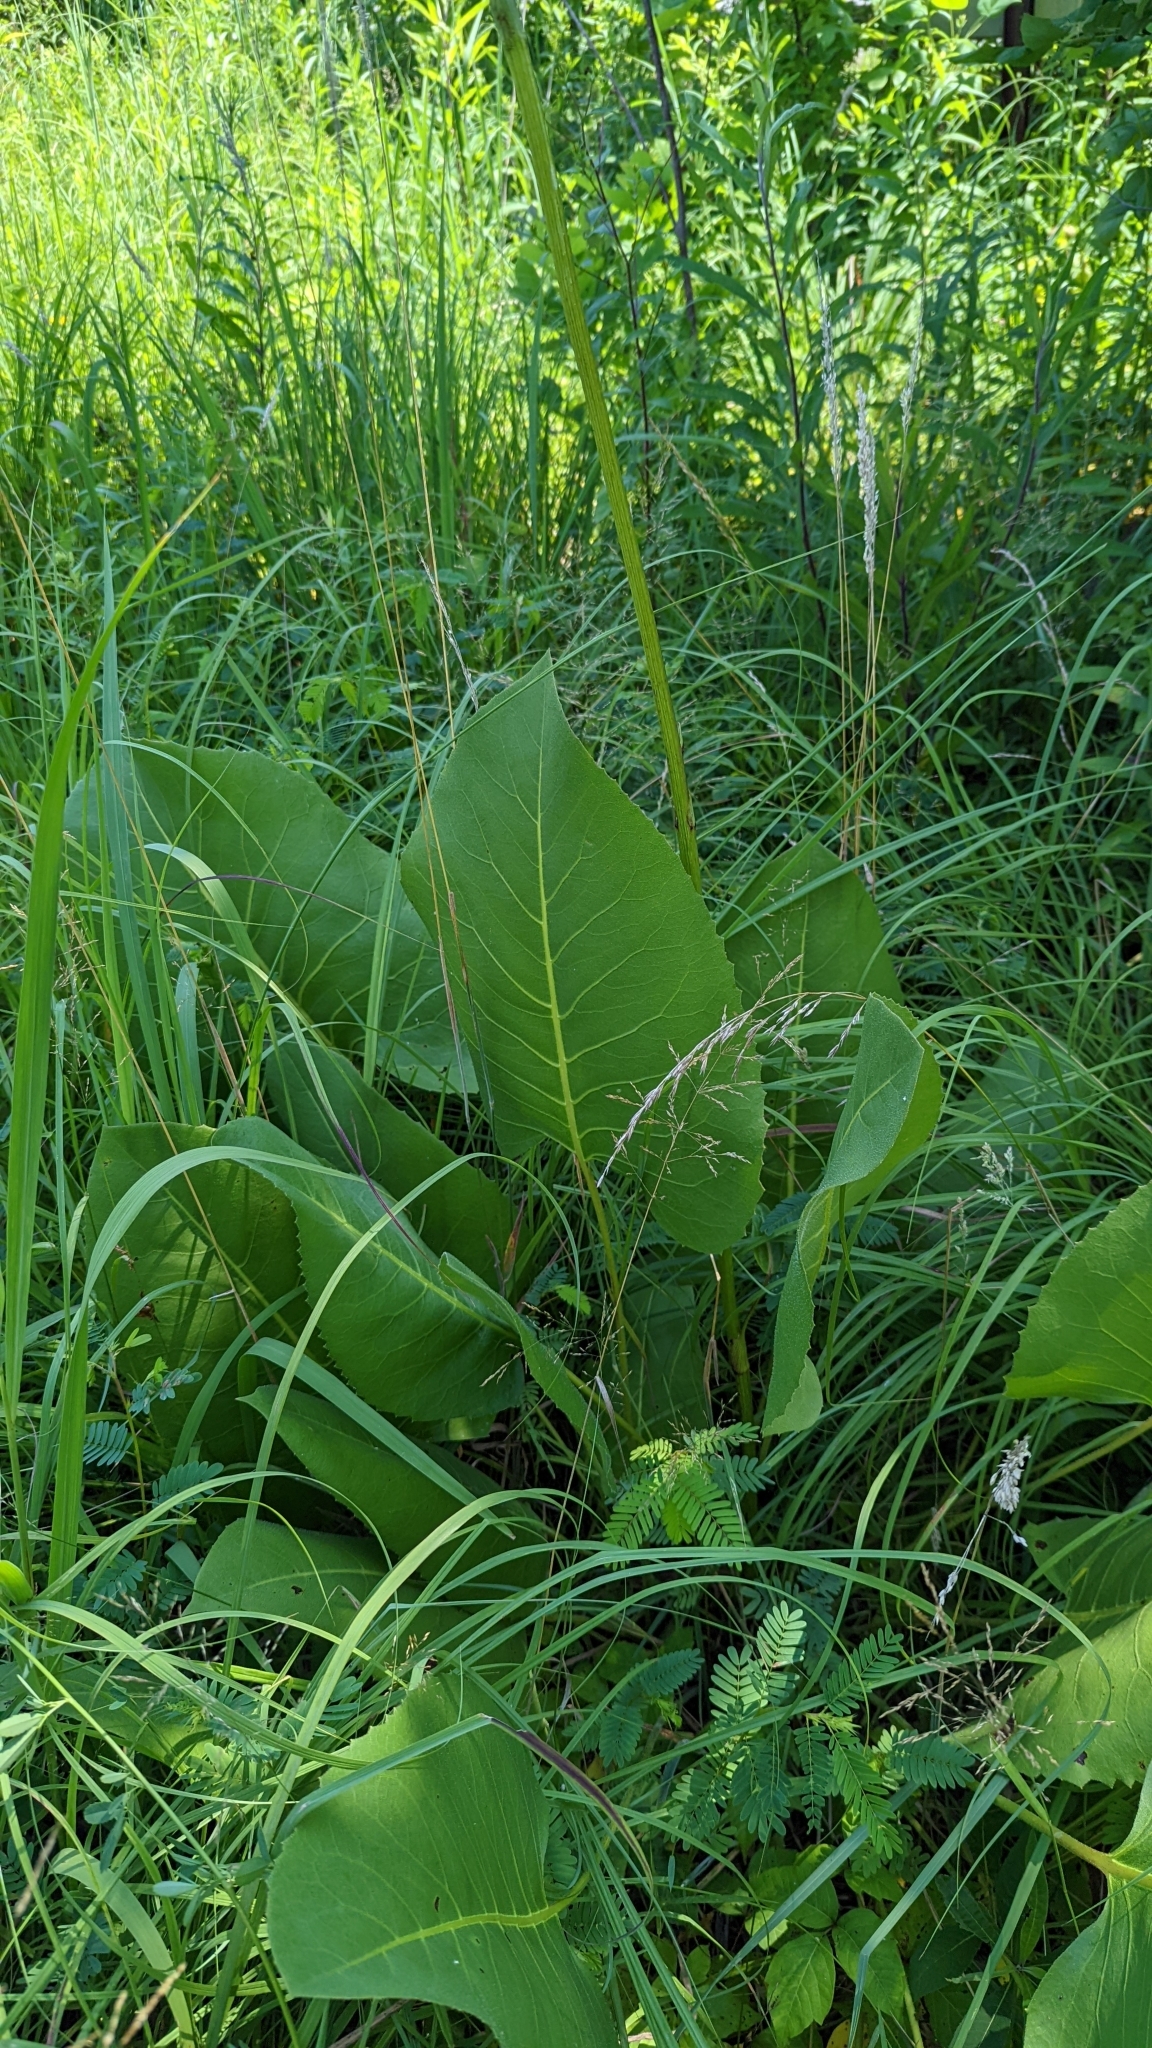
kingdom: Plantae
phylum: Tracheophyta
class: Magnoliopsida
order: Asterales
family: Asteraceae
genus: Silphium
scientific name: Silphium terebinthinaceum
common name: Basal-leaf rosinweed
